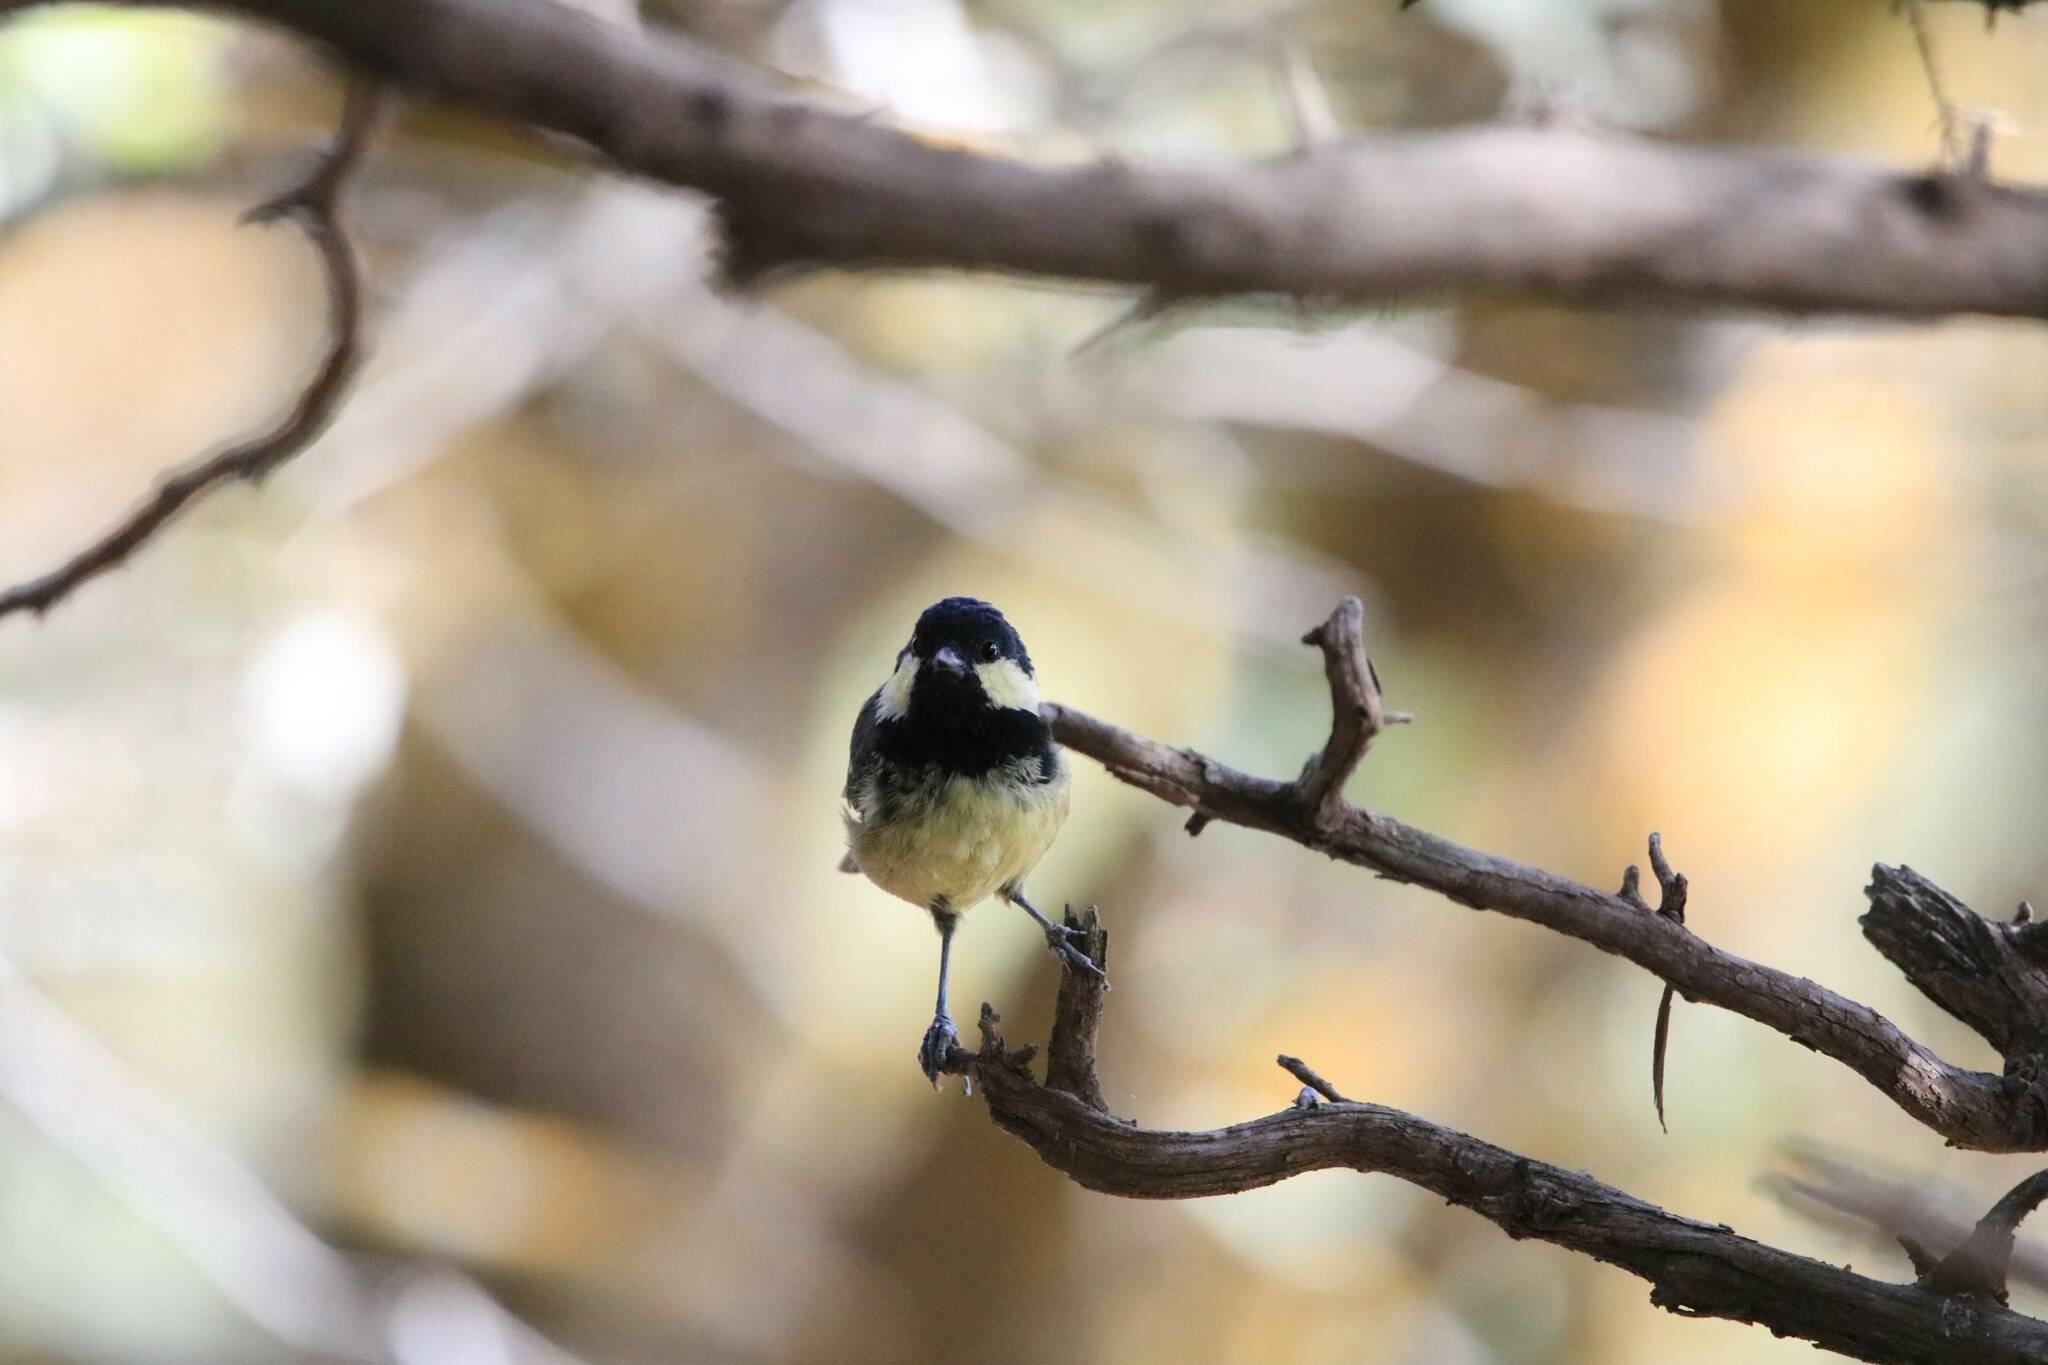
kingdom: Animalia
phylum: Chordata
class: Aves
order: Passeriformes
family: Paridae
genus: Periparus
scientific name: Periparus ater
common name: Coal tit
